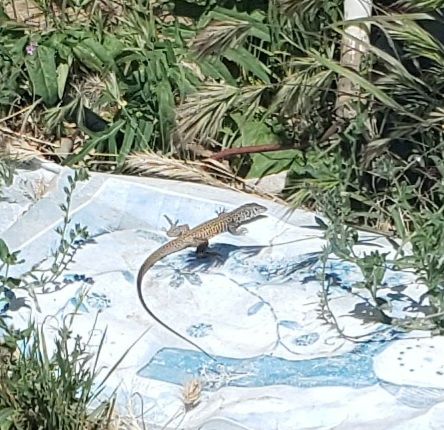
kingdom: Animalia
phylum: Chordata
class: Squamata
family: Teiidae
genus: Aspidoscelis
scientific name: Aspidoscelis tigris
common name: Tiger whiptail
